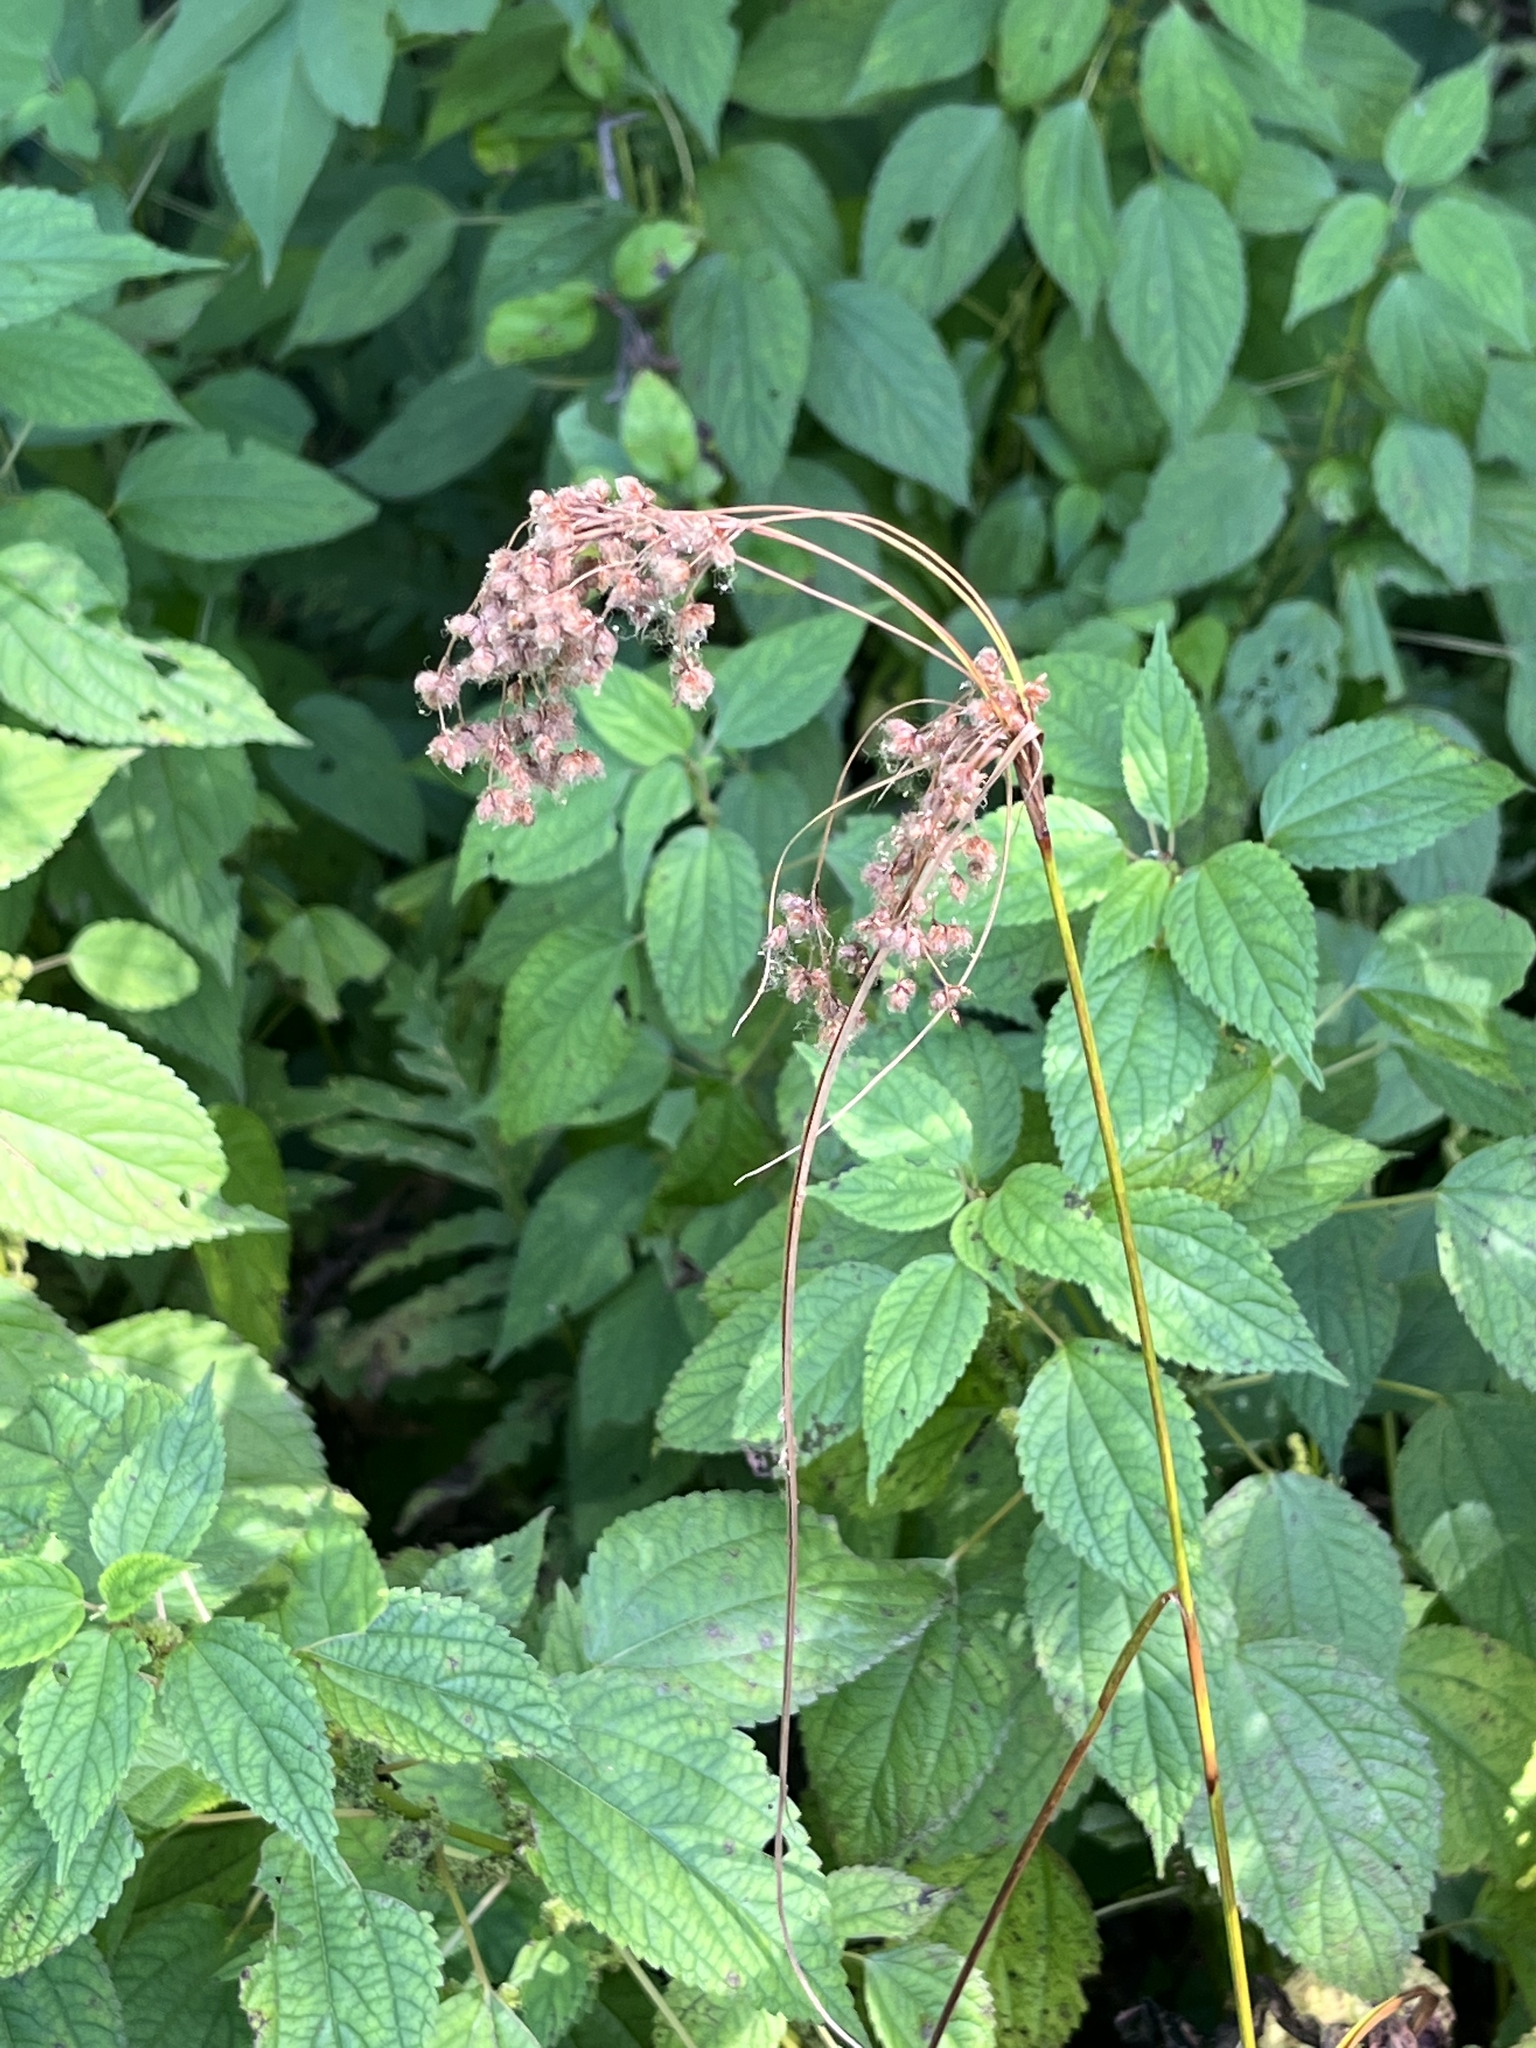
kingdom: Plantae
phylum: Tracheophyta
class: Liliopsida
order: Poales
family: Cyperaceae
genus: Scirpus
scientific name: Scirpus cyperinus
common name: Black-sheathed bulrush
